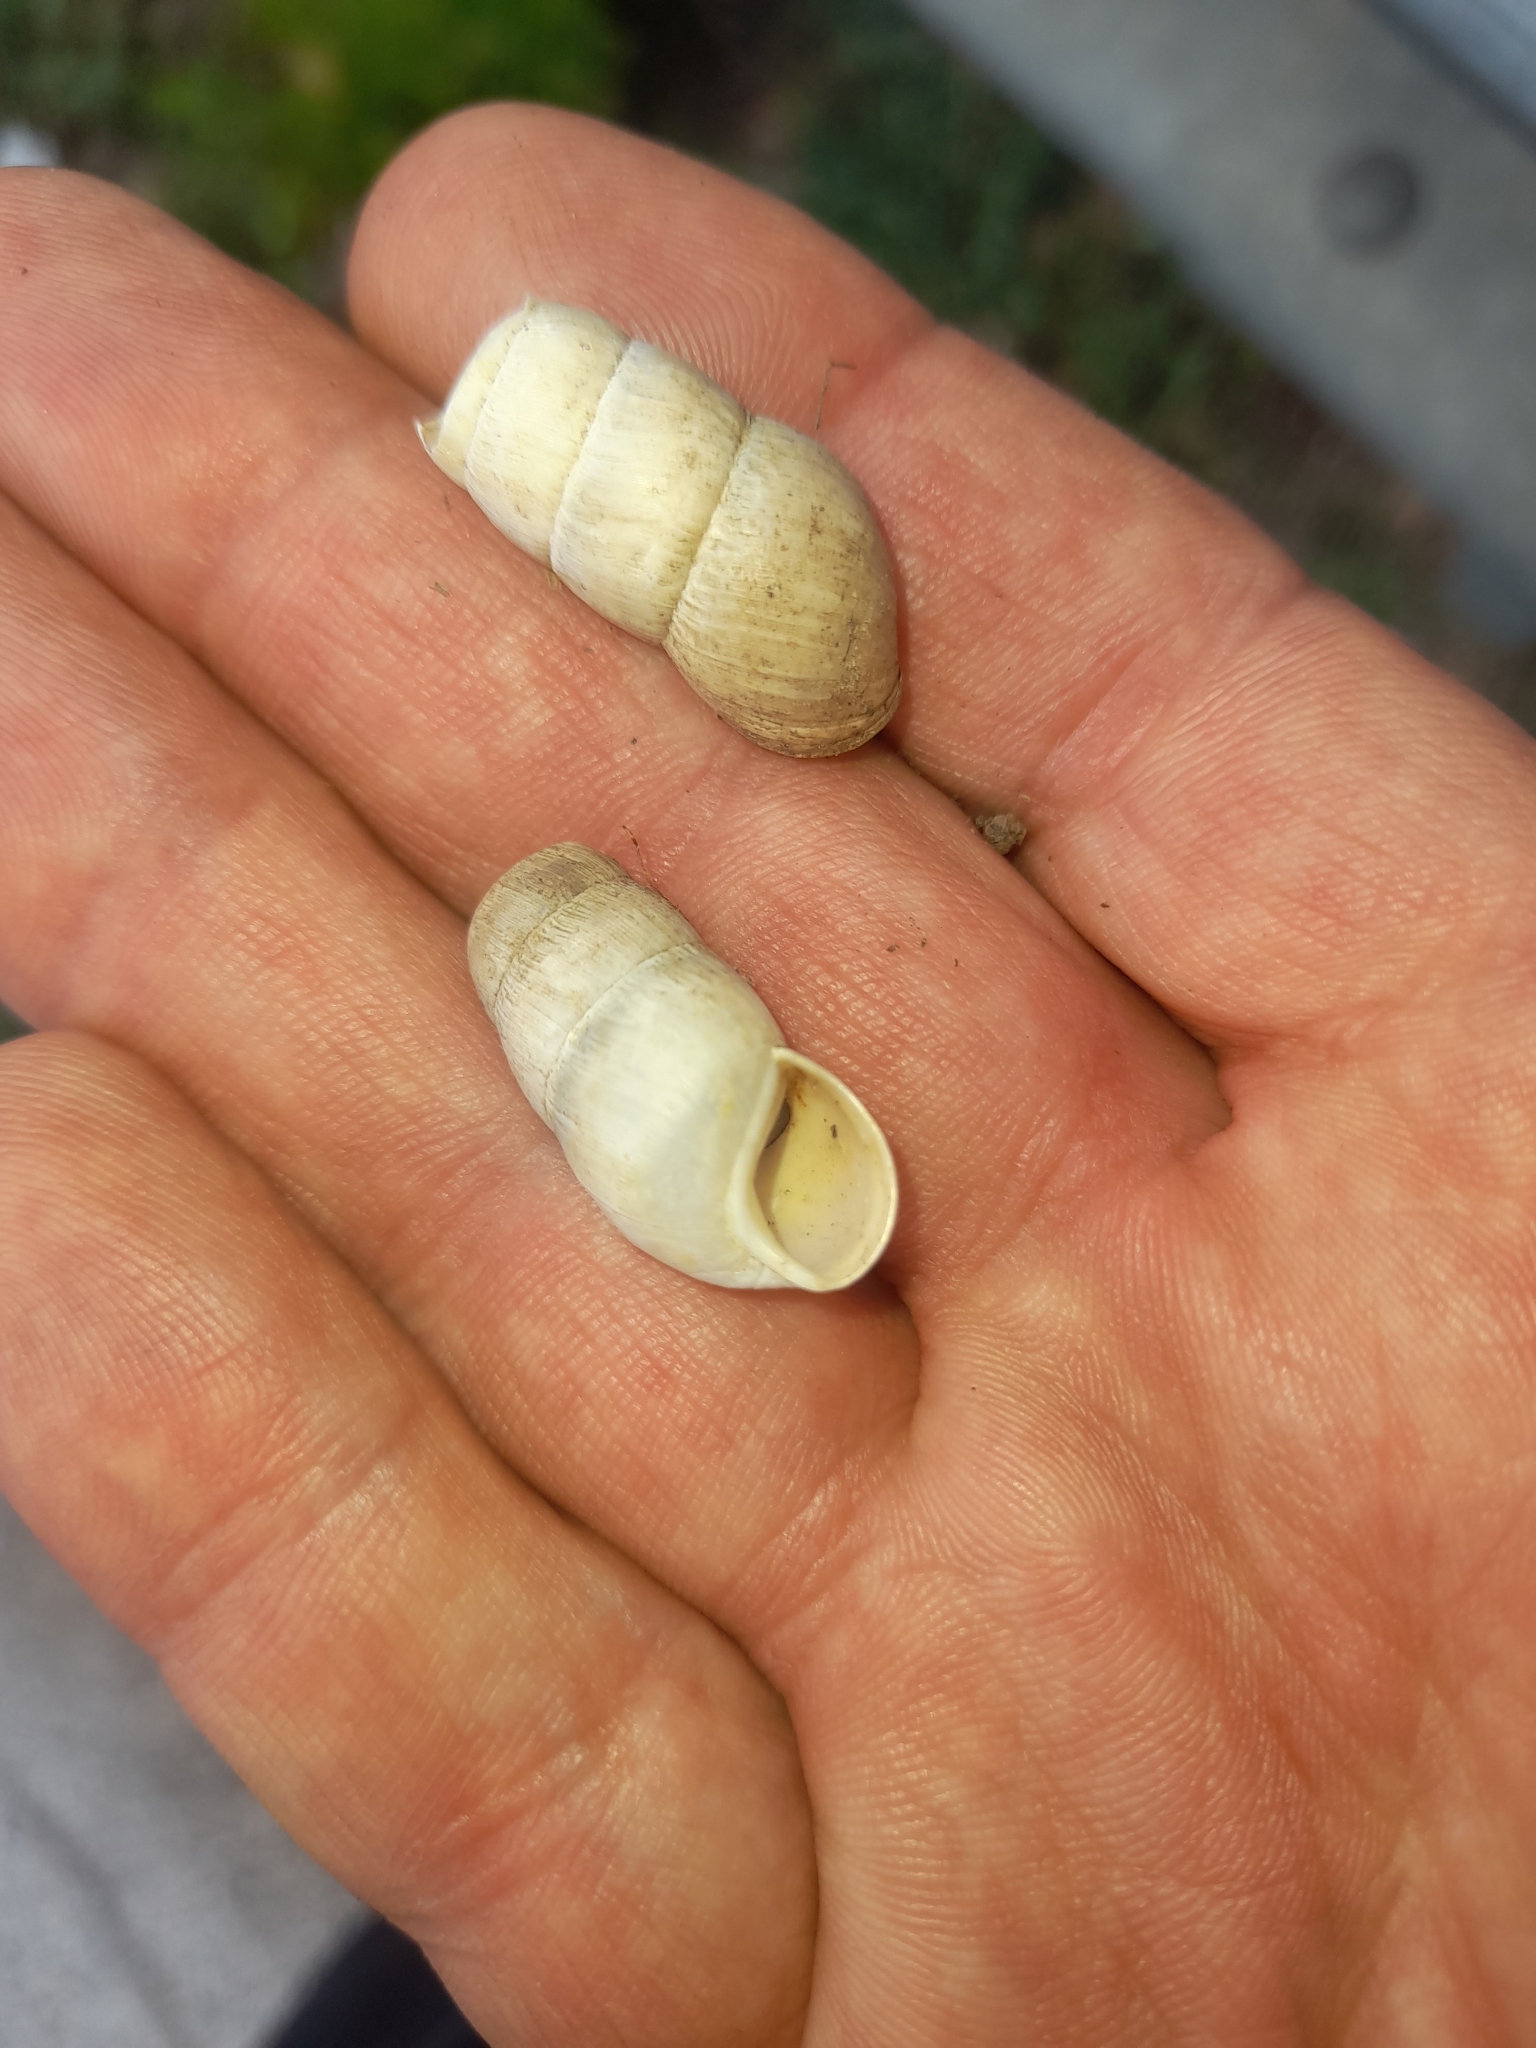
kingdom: Animalia
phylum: Mollusca
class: Gastropoda
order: Stylommatophora
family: Achatinidae
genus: Rumina
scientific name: Rumina decollata
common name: Decollate snail
